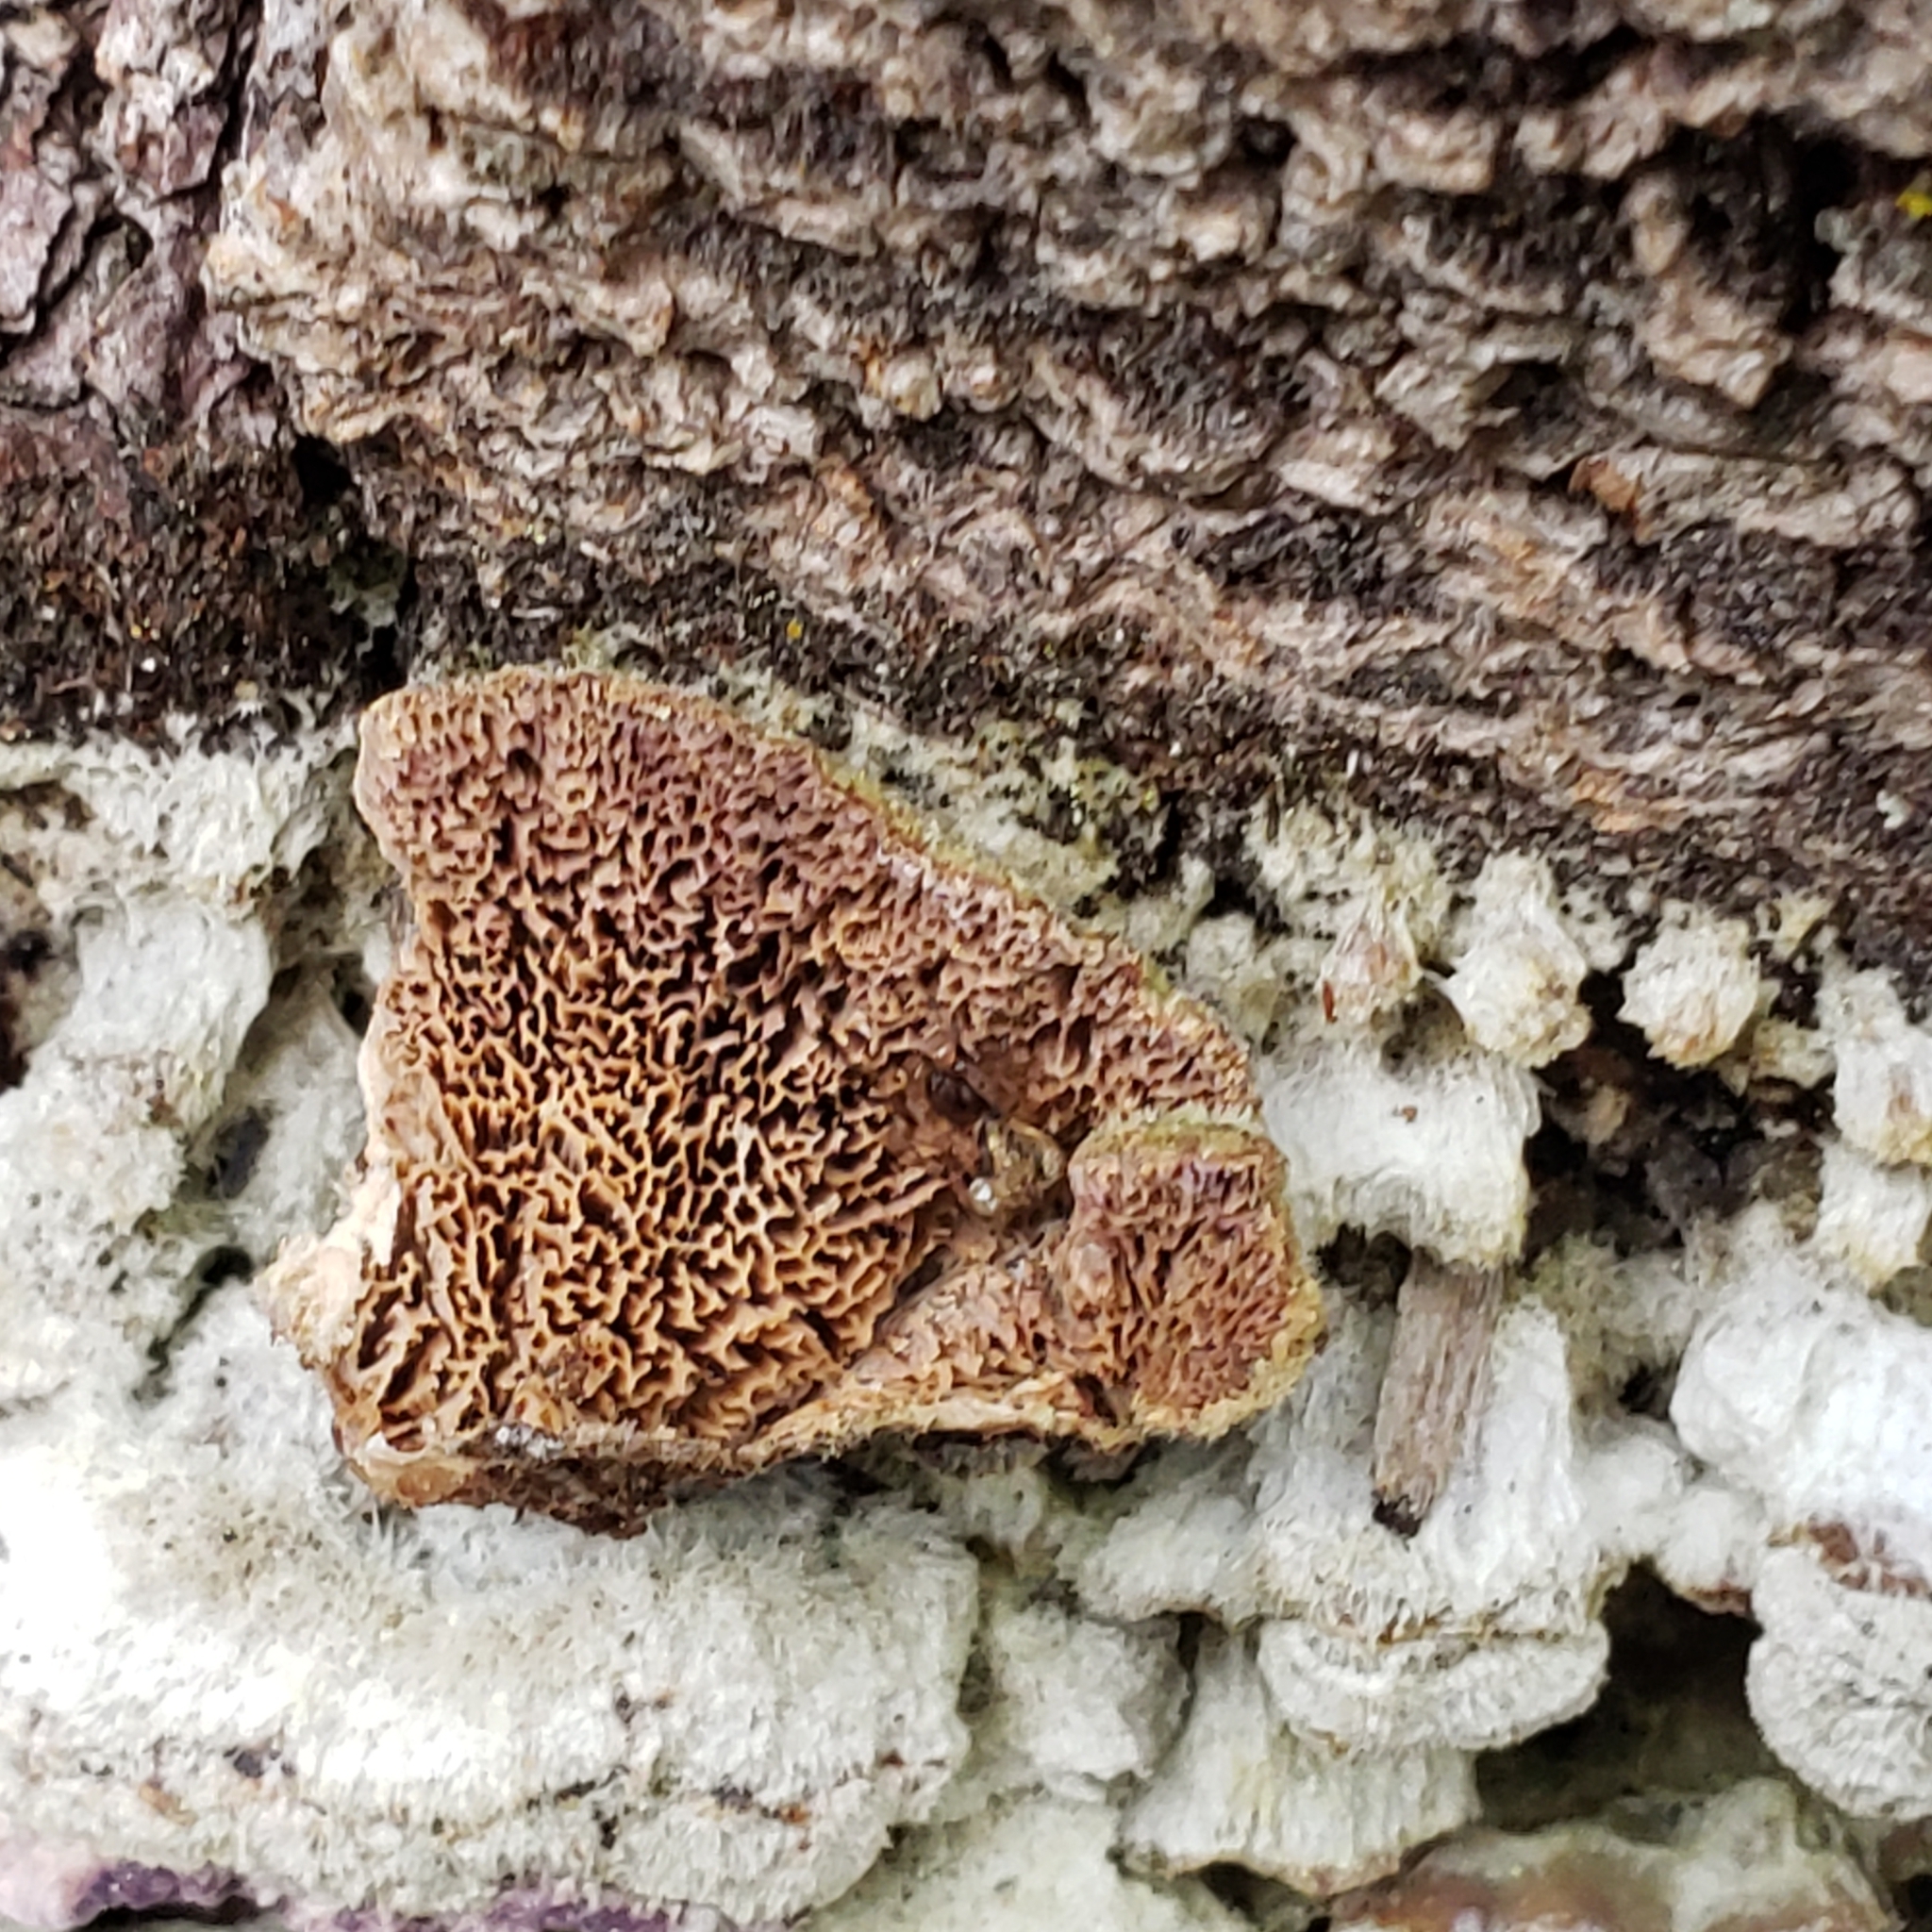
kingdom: Fungi
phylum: Basidiomycota
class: Agaricomycetes
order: Hymenochaetales
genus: Trichaptum
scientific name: Trichaptum abietinum
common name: Purplepore bracket
